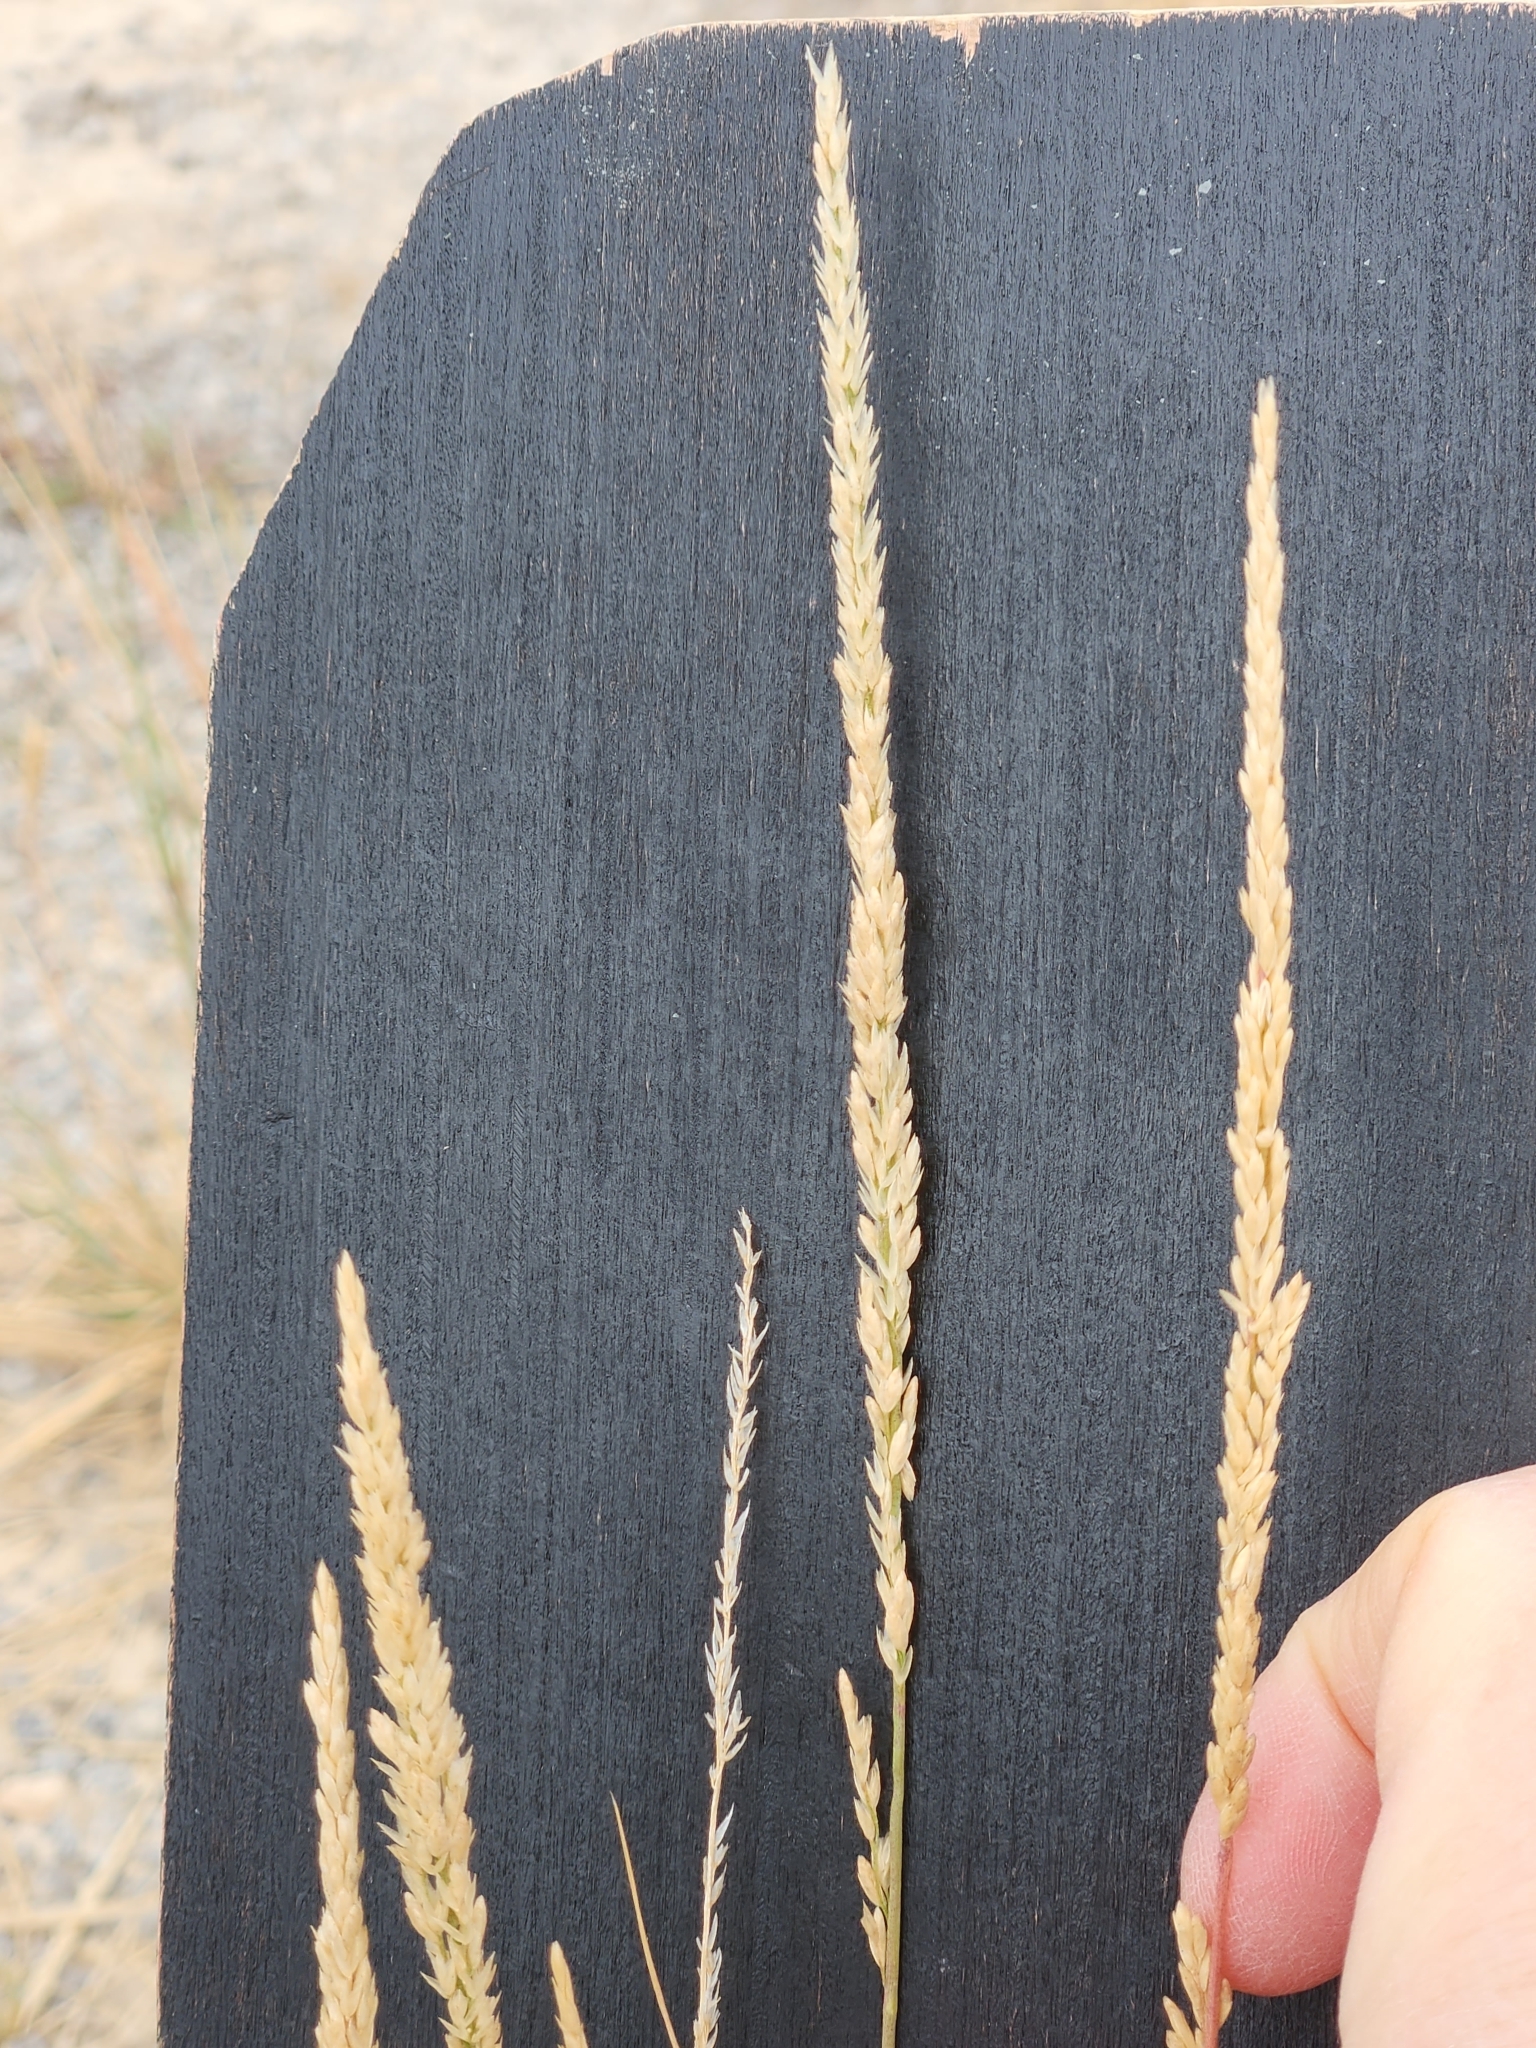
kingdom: Plantae
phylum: Tracheophyta
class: Liliopsida
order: Poales
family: Poaceae
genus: Tridens
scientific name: Tridens albescens
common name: White tridens
